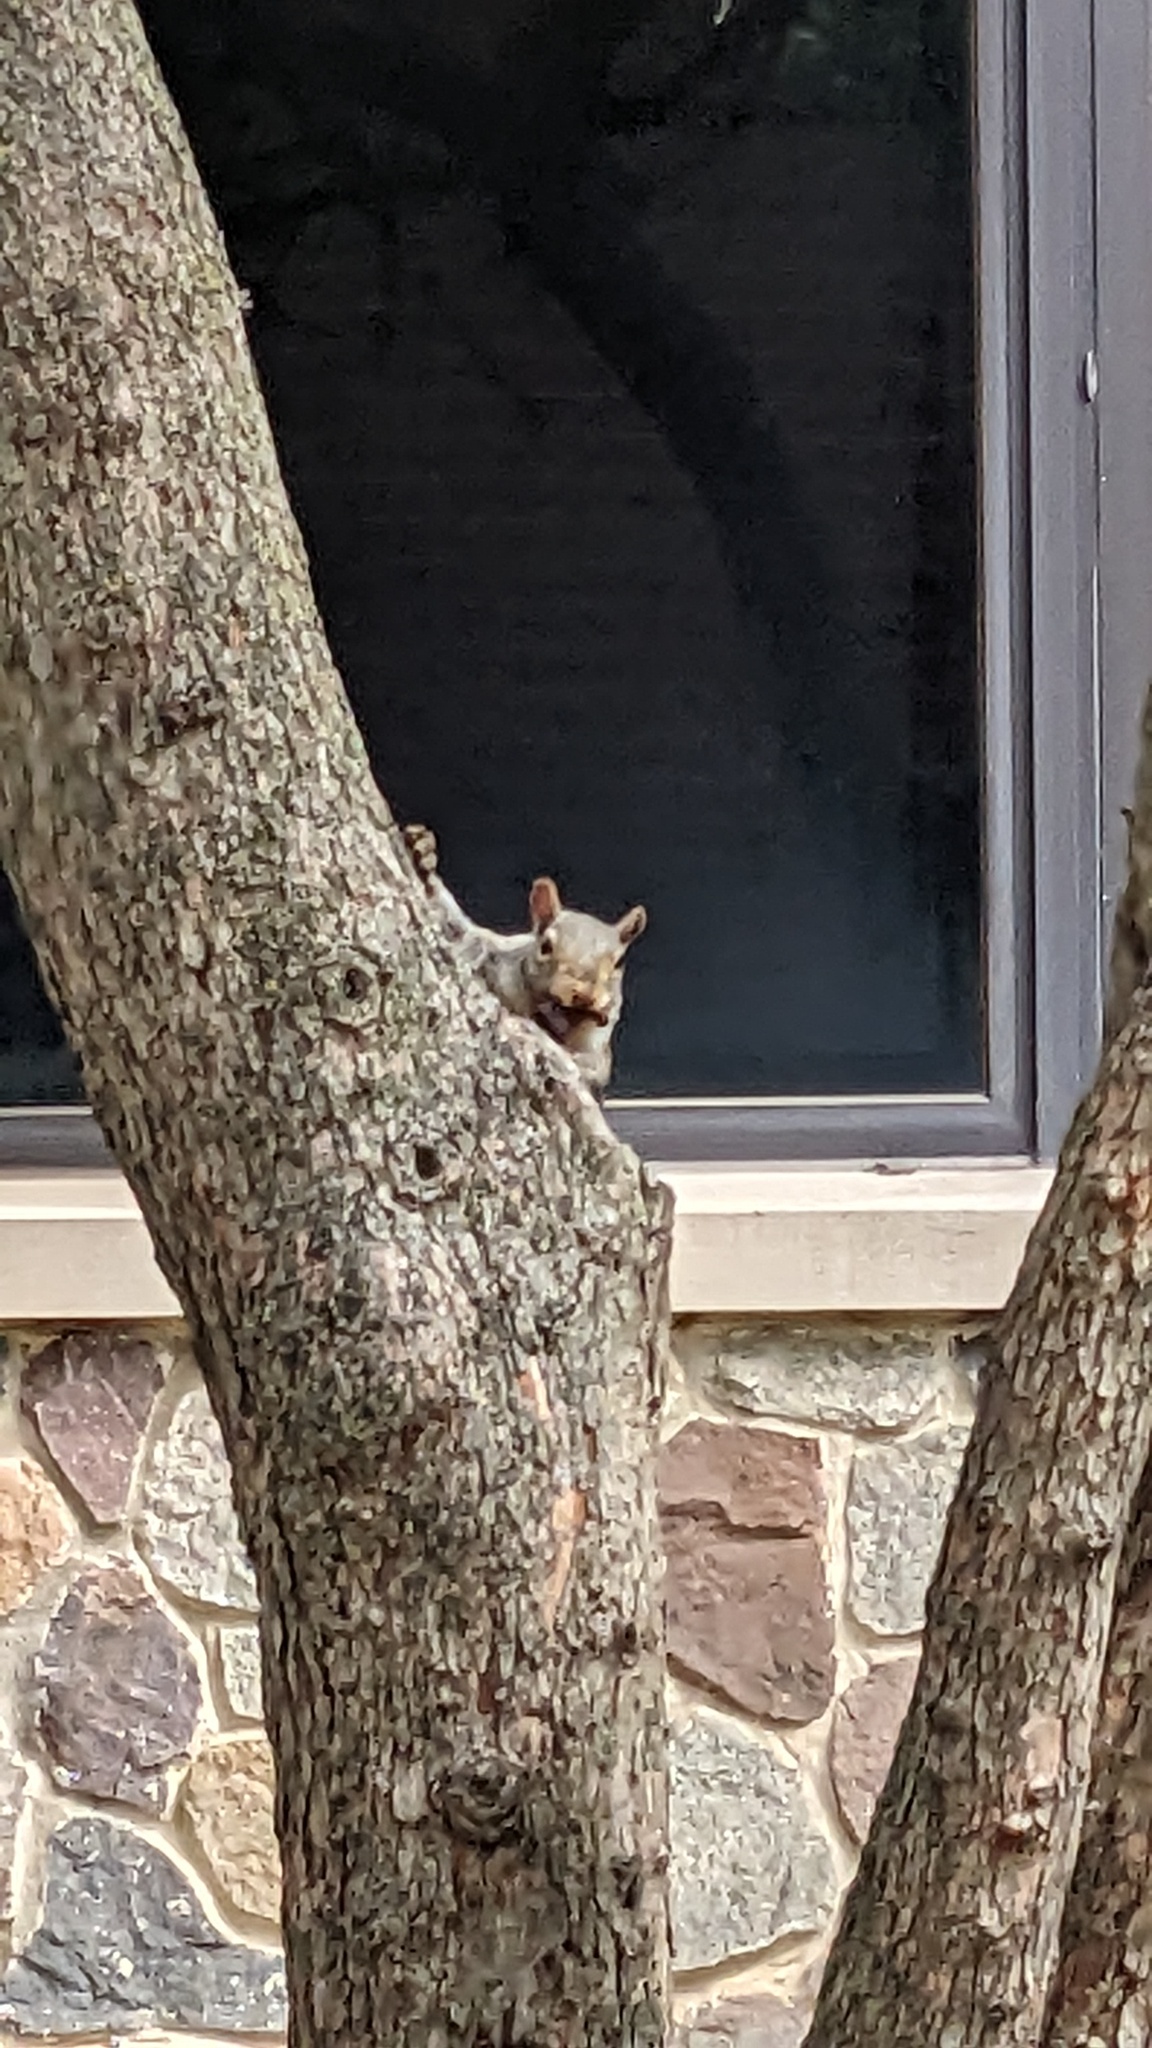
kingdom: Animalia
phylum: Chordata
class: Mammalia
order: Rodentia
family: Sciuridae
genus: Sciurus
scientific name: Sciurus carolinensis
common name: Eastern gray squirrel
